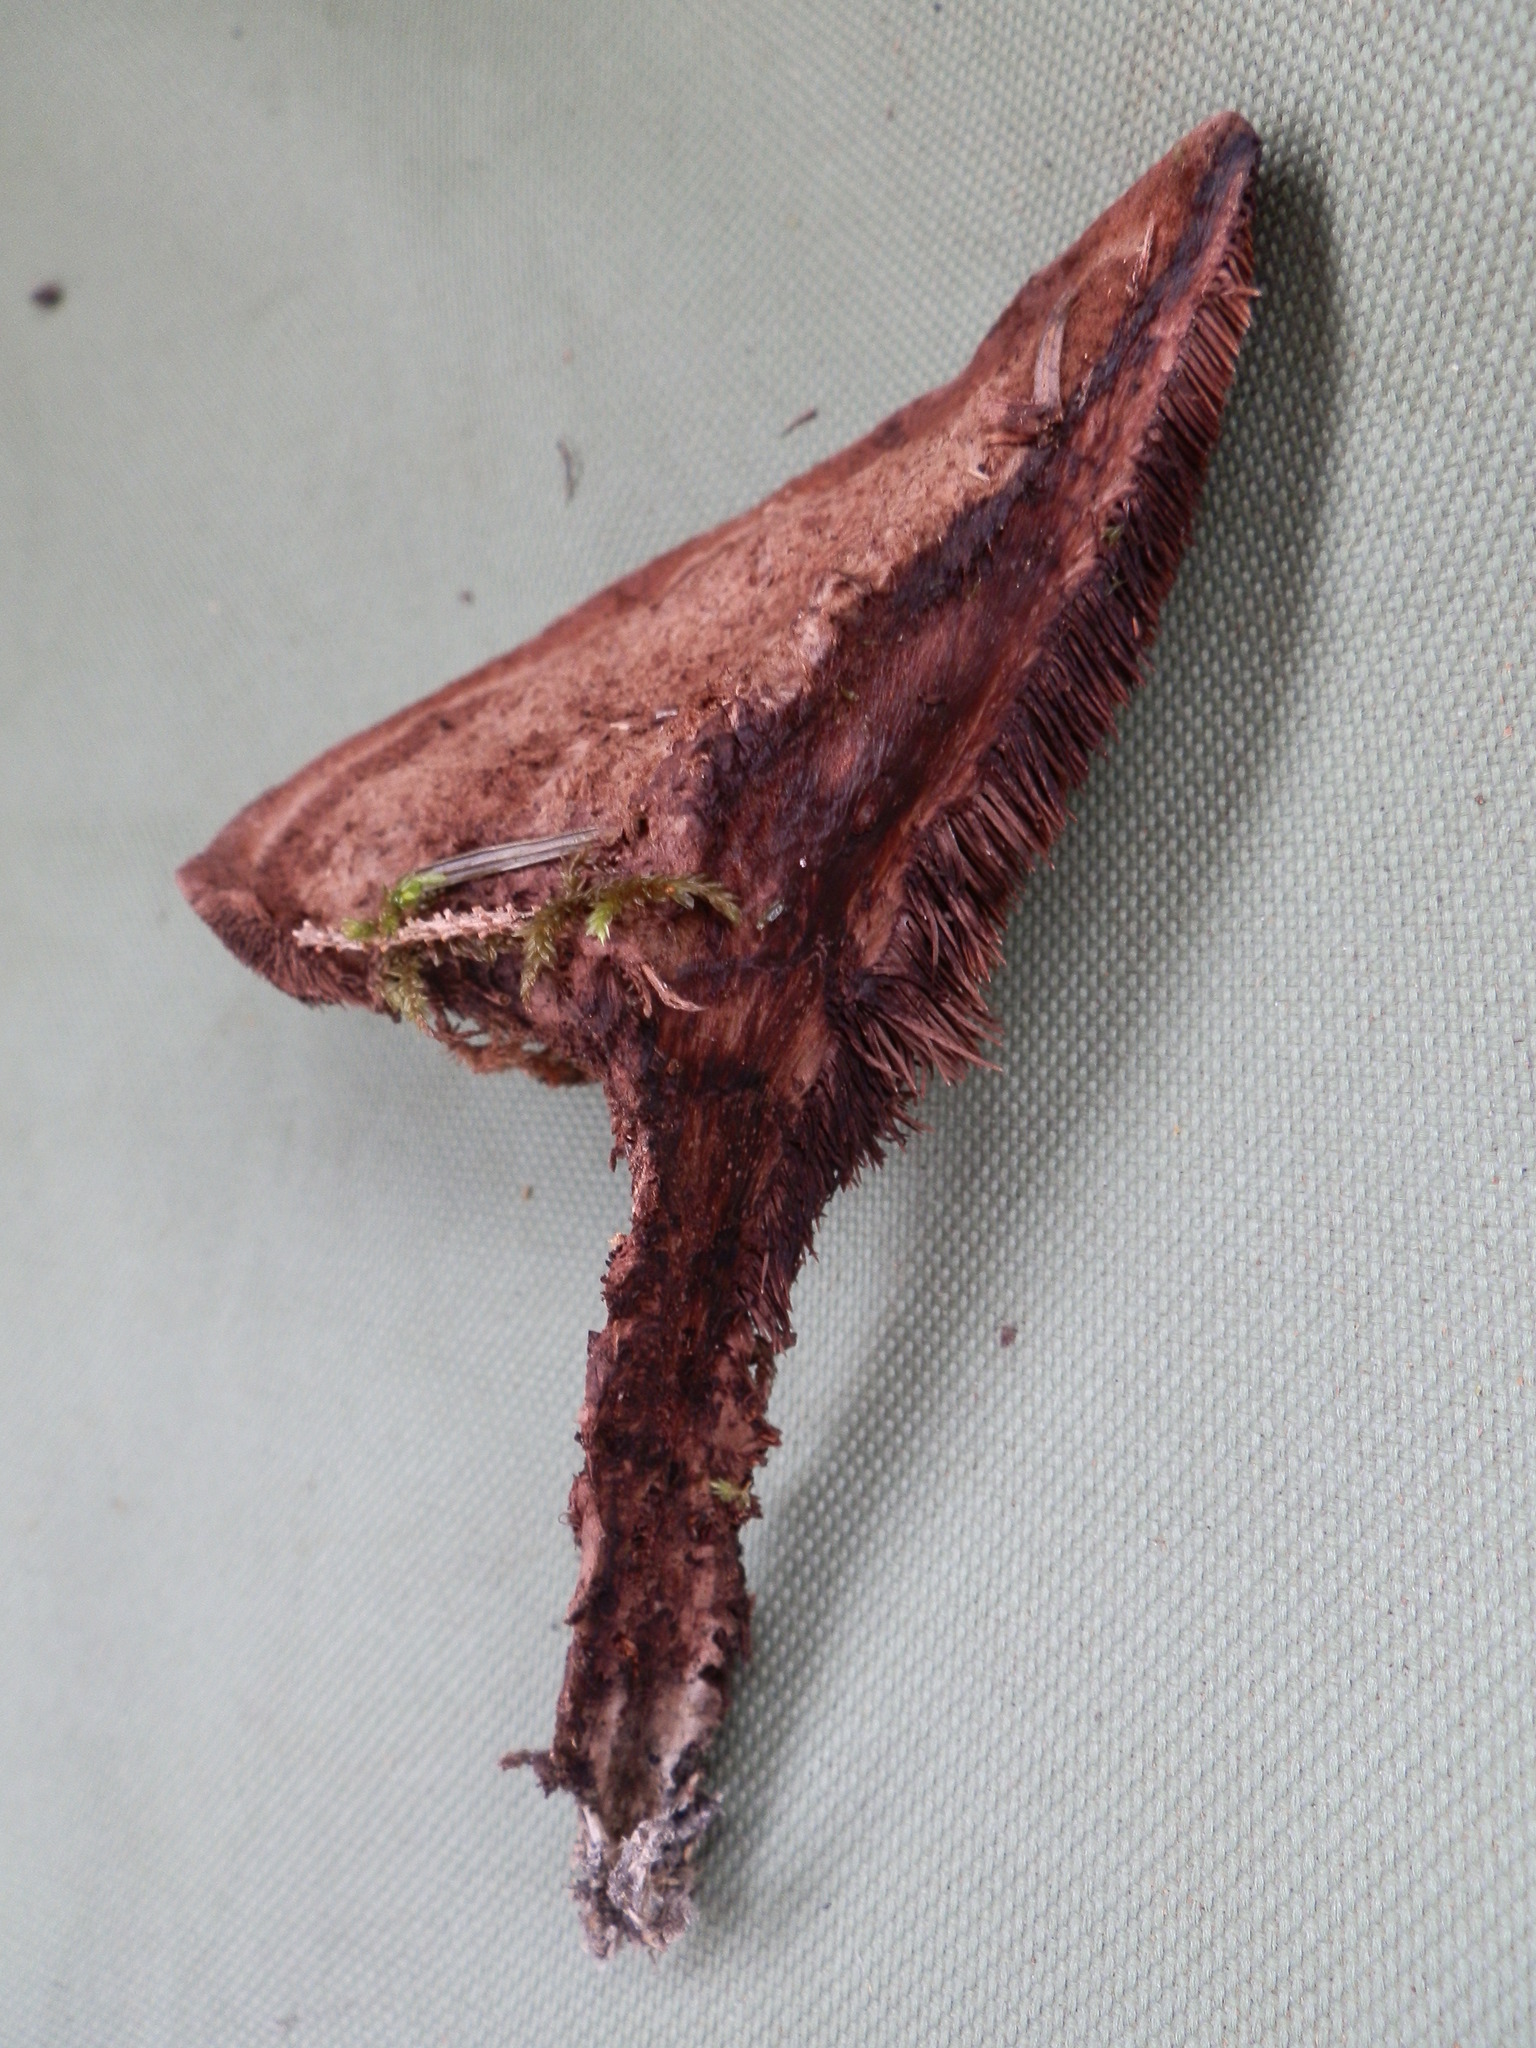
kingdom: Fungi
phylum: Basidiomycota
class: Agaricomycetes
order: Thelephorales
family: Bankeraceae
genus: Hydnellum
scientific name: Hydnellum spongiosipes
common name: Velvet tooth
